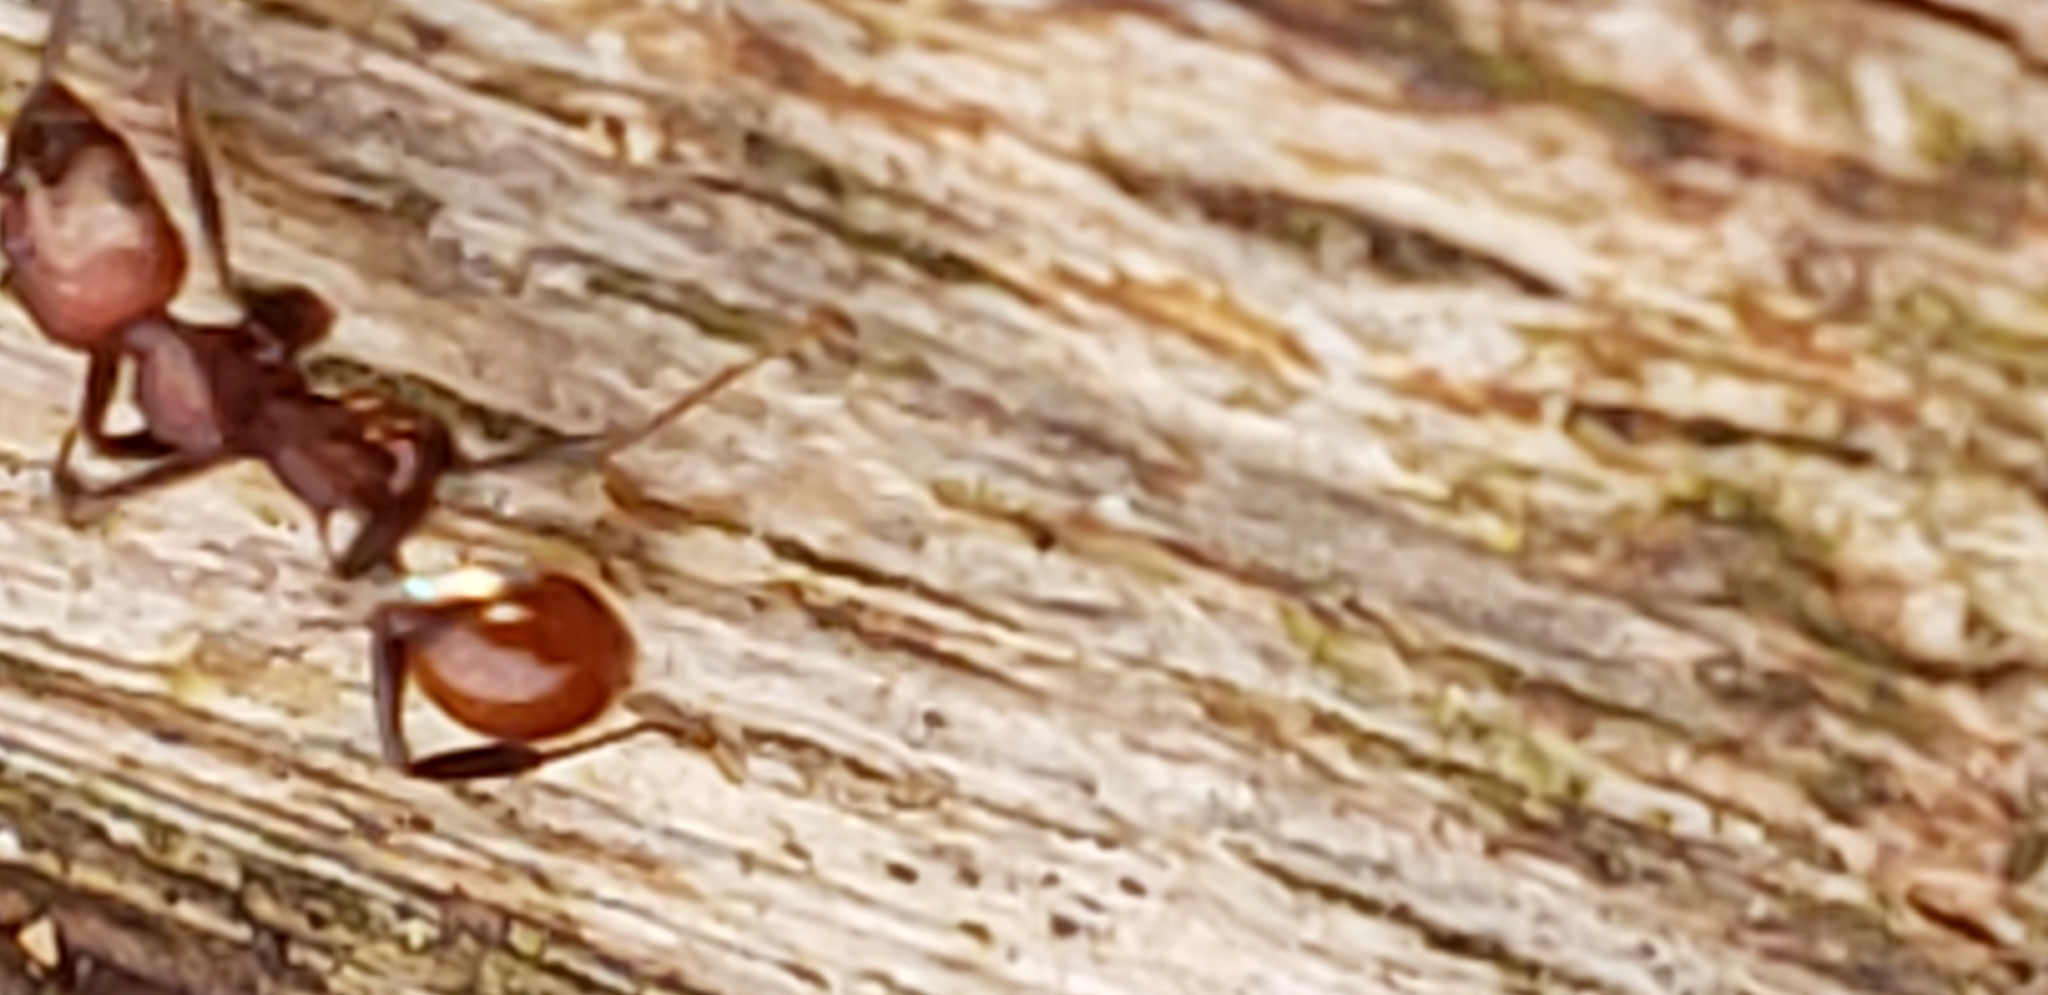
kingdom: Animalia
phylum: Arthropoda
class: Insecta
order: Hymenoptera
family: Formicidae
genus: Aphaenogaster
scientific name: Aphaenogaster tennesseensis
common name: Tennessee thread-waisted ant
